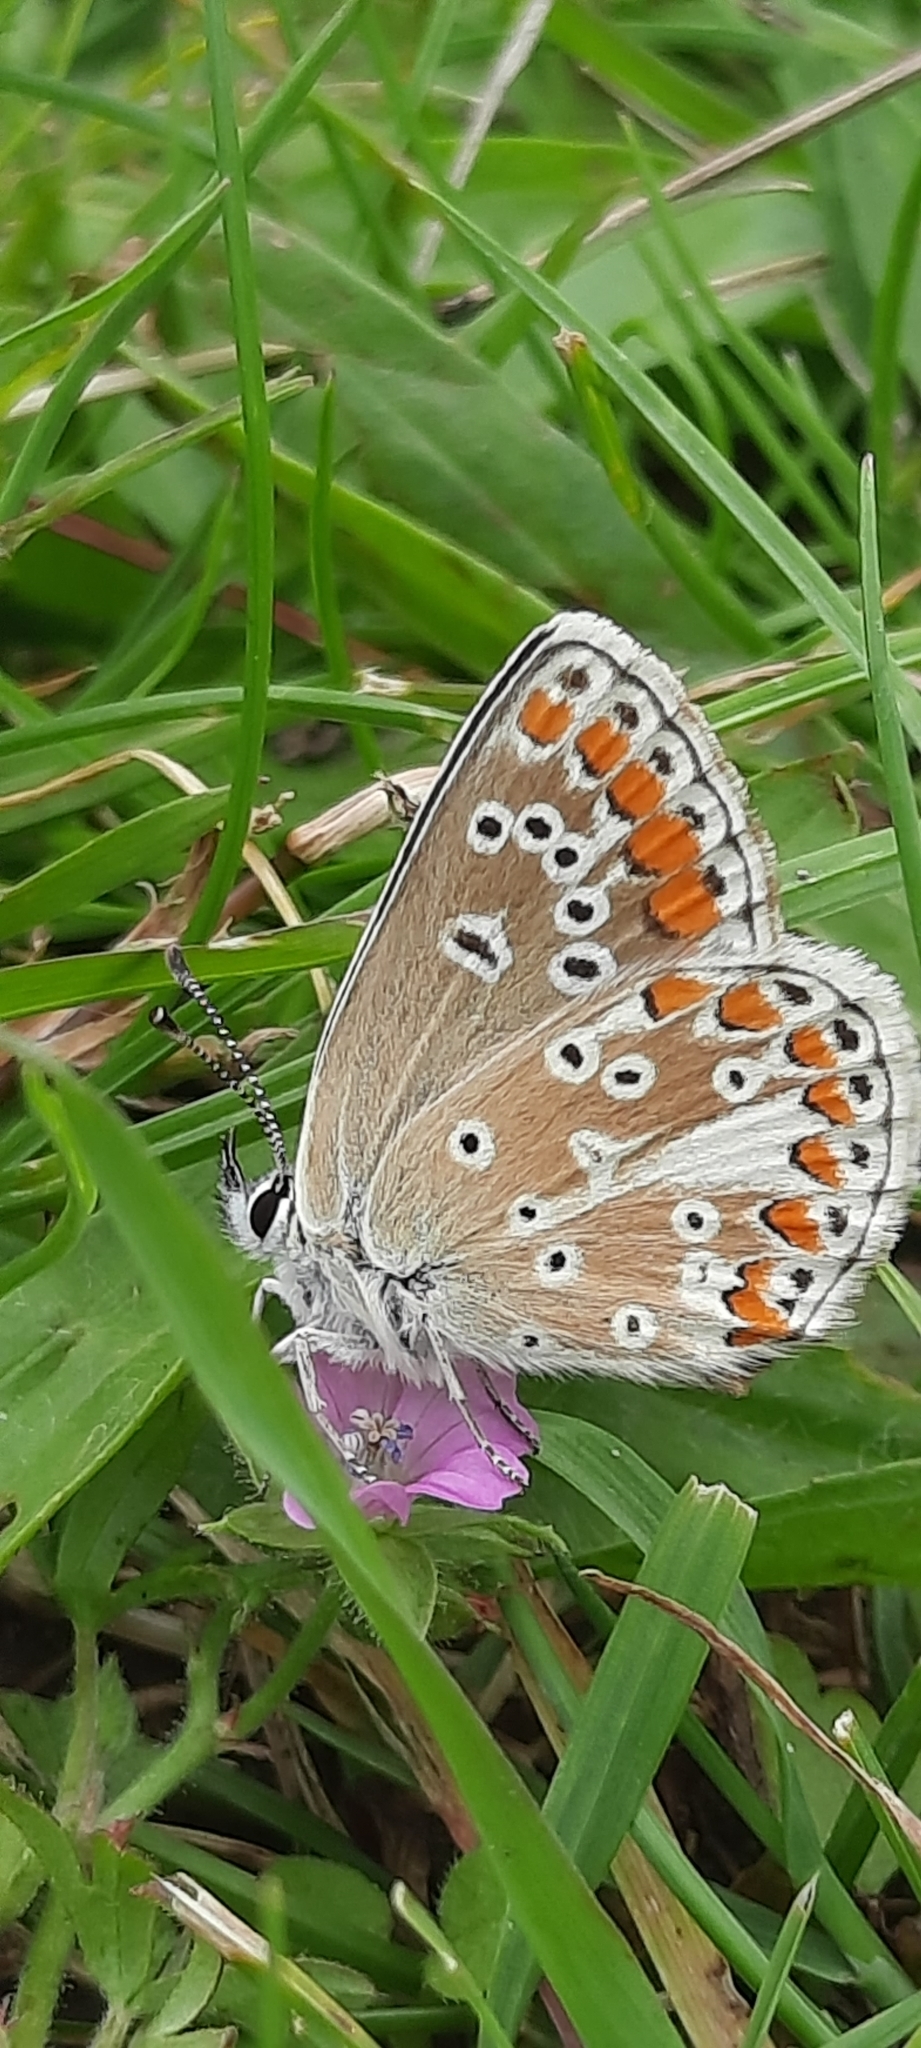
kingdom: Animalia
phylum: Arthropoda
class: Insecta
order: Lepidoptera
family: Lycaenidae
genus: Aricia
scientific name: Aricia agestis
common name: Brown argus
